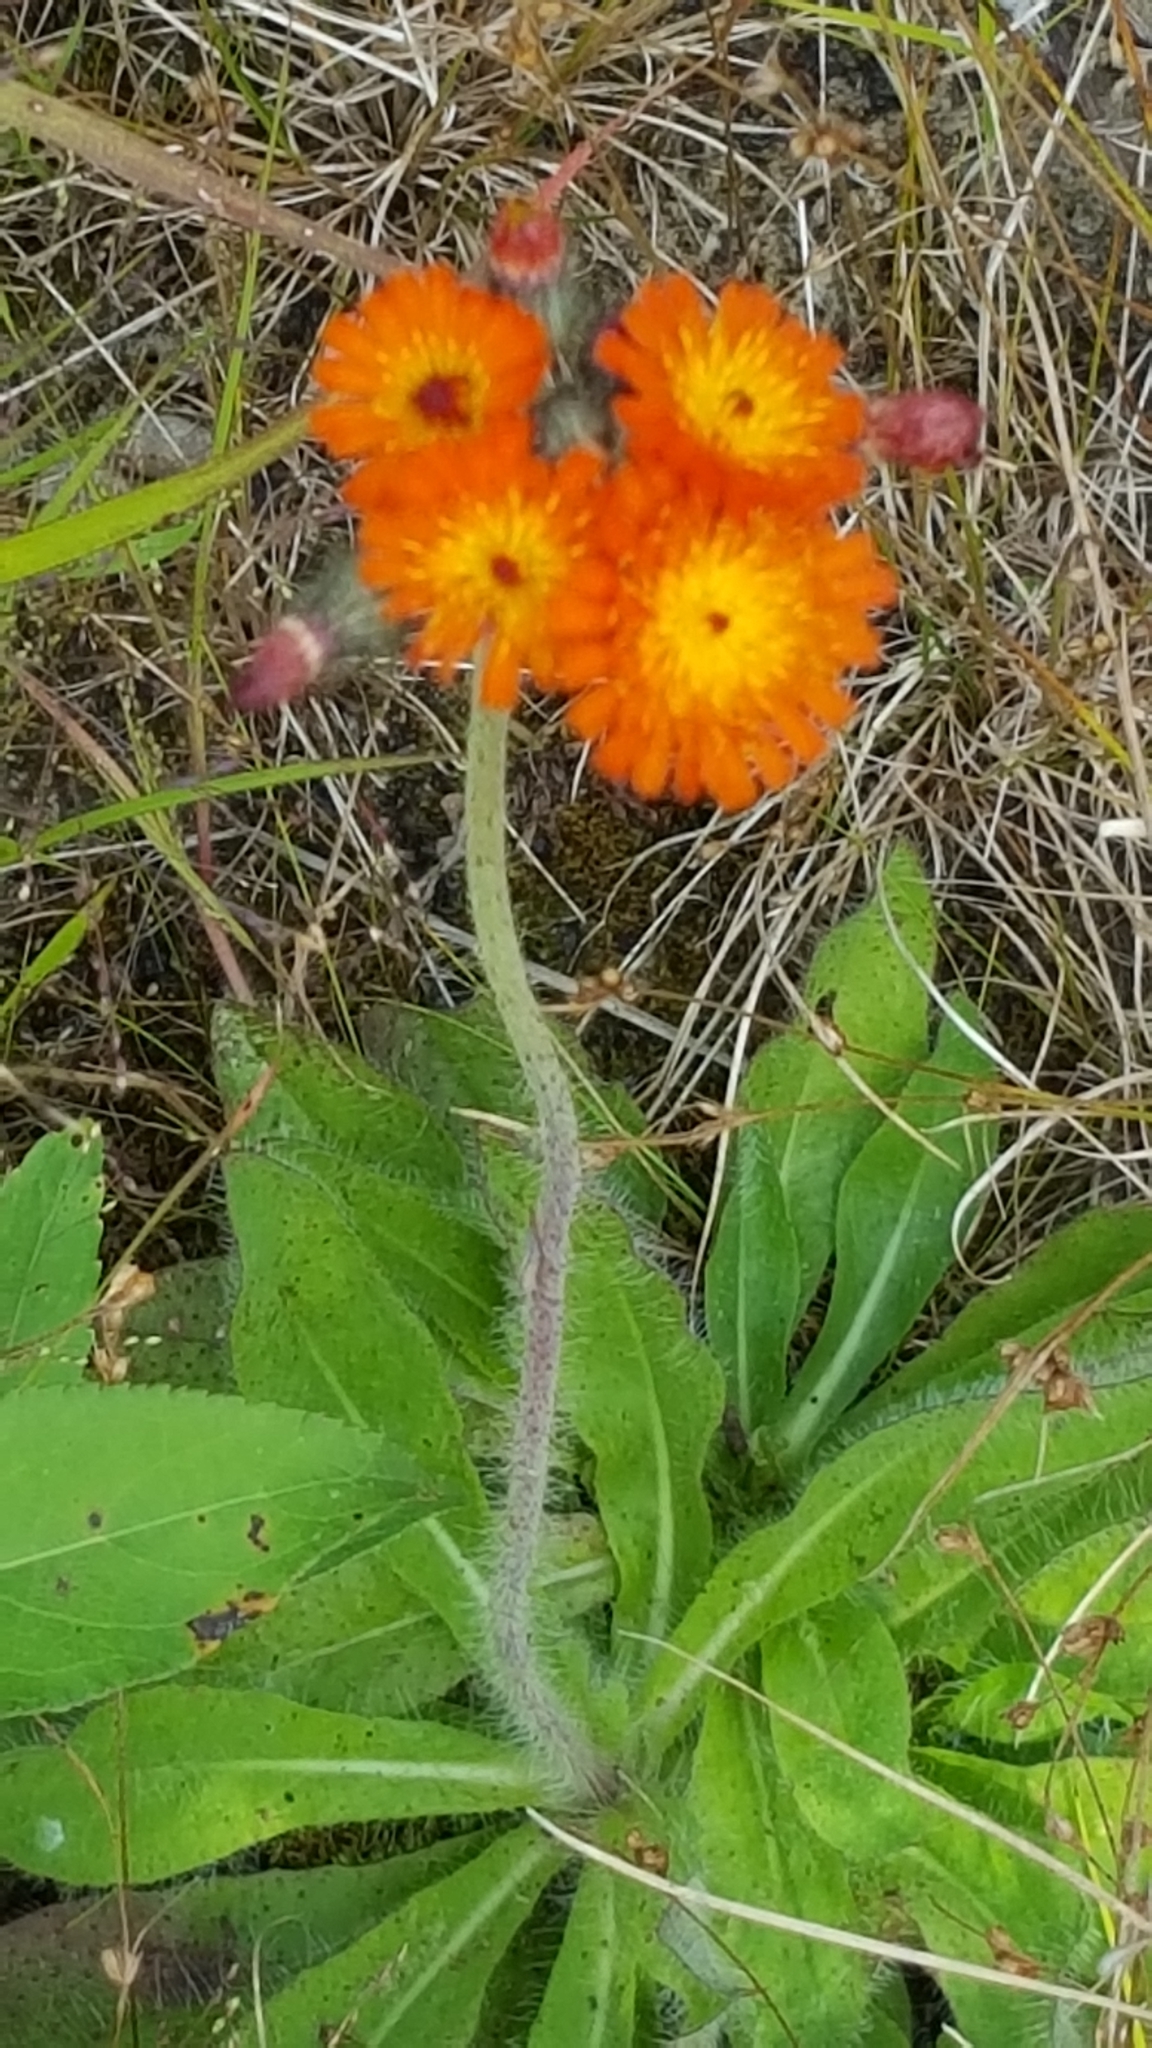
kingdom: Plantae
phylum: Tracheophyta
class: Magnoliopsida
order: Asterales
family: Asteraceae
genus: Pilosella
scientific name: Pilosella aurantiaca
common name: Fox-and-cubs
